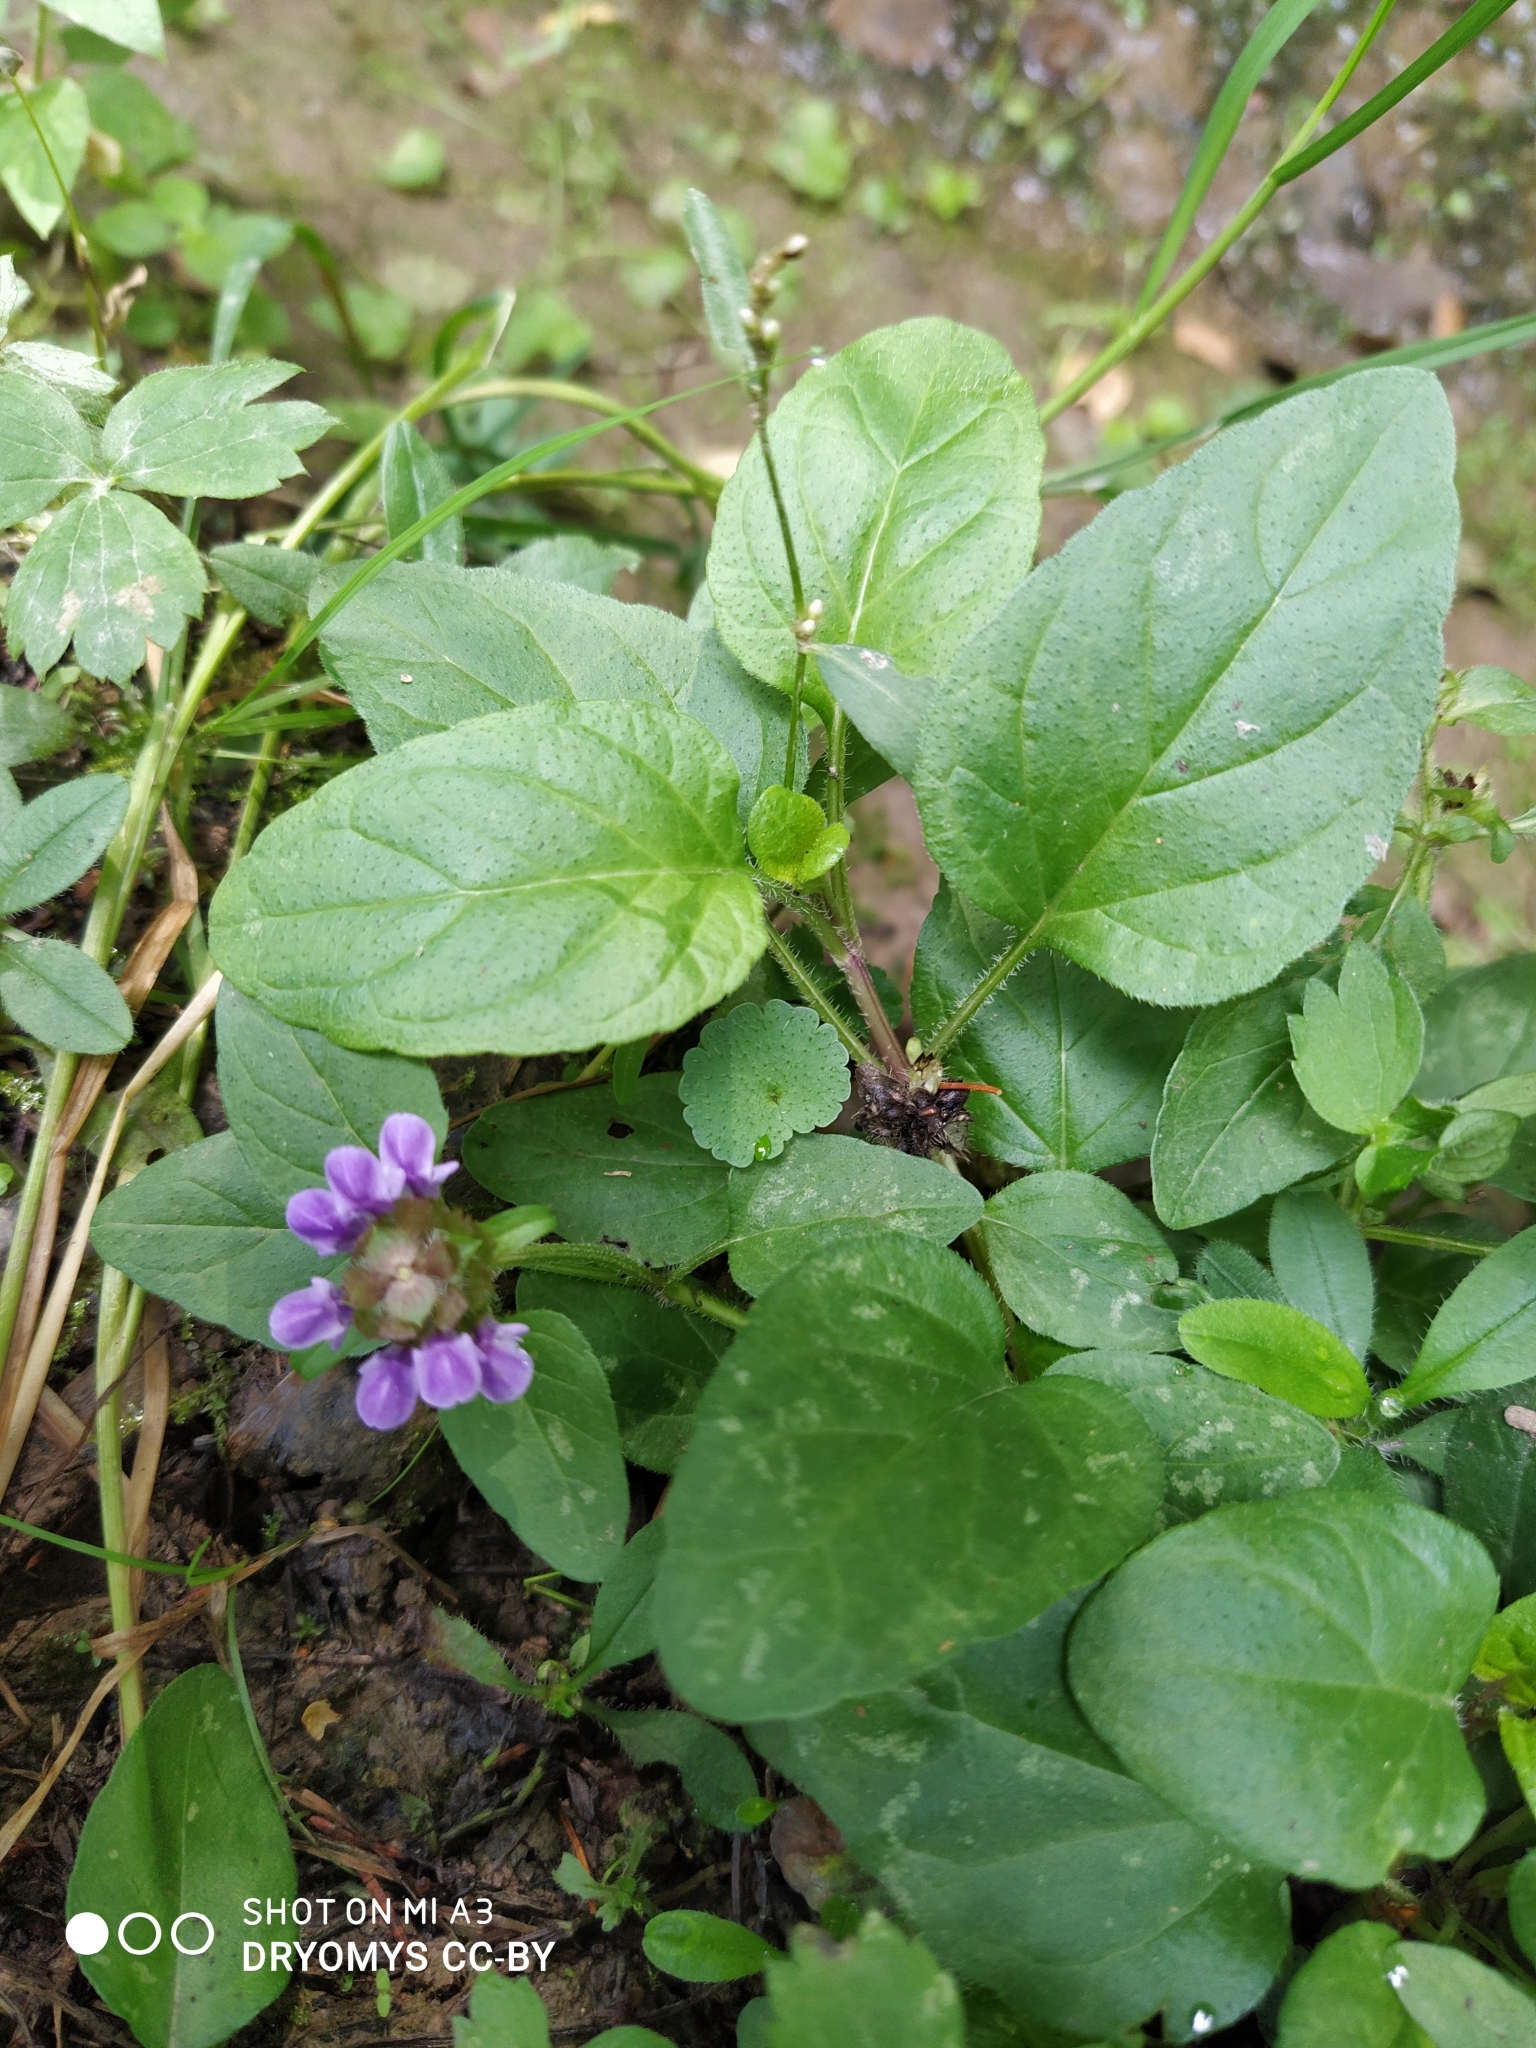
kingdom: Plantae
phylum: Tracheophyta
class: Magnoliopsida
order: Lamiales
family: Lamiaceae
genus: Prunella
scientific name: Prunella vulgaris
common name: Heal-all
